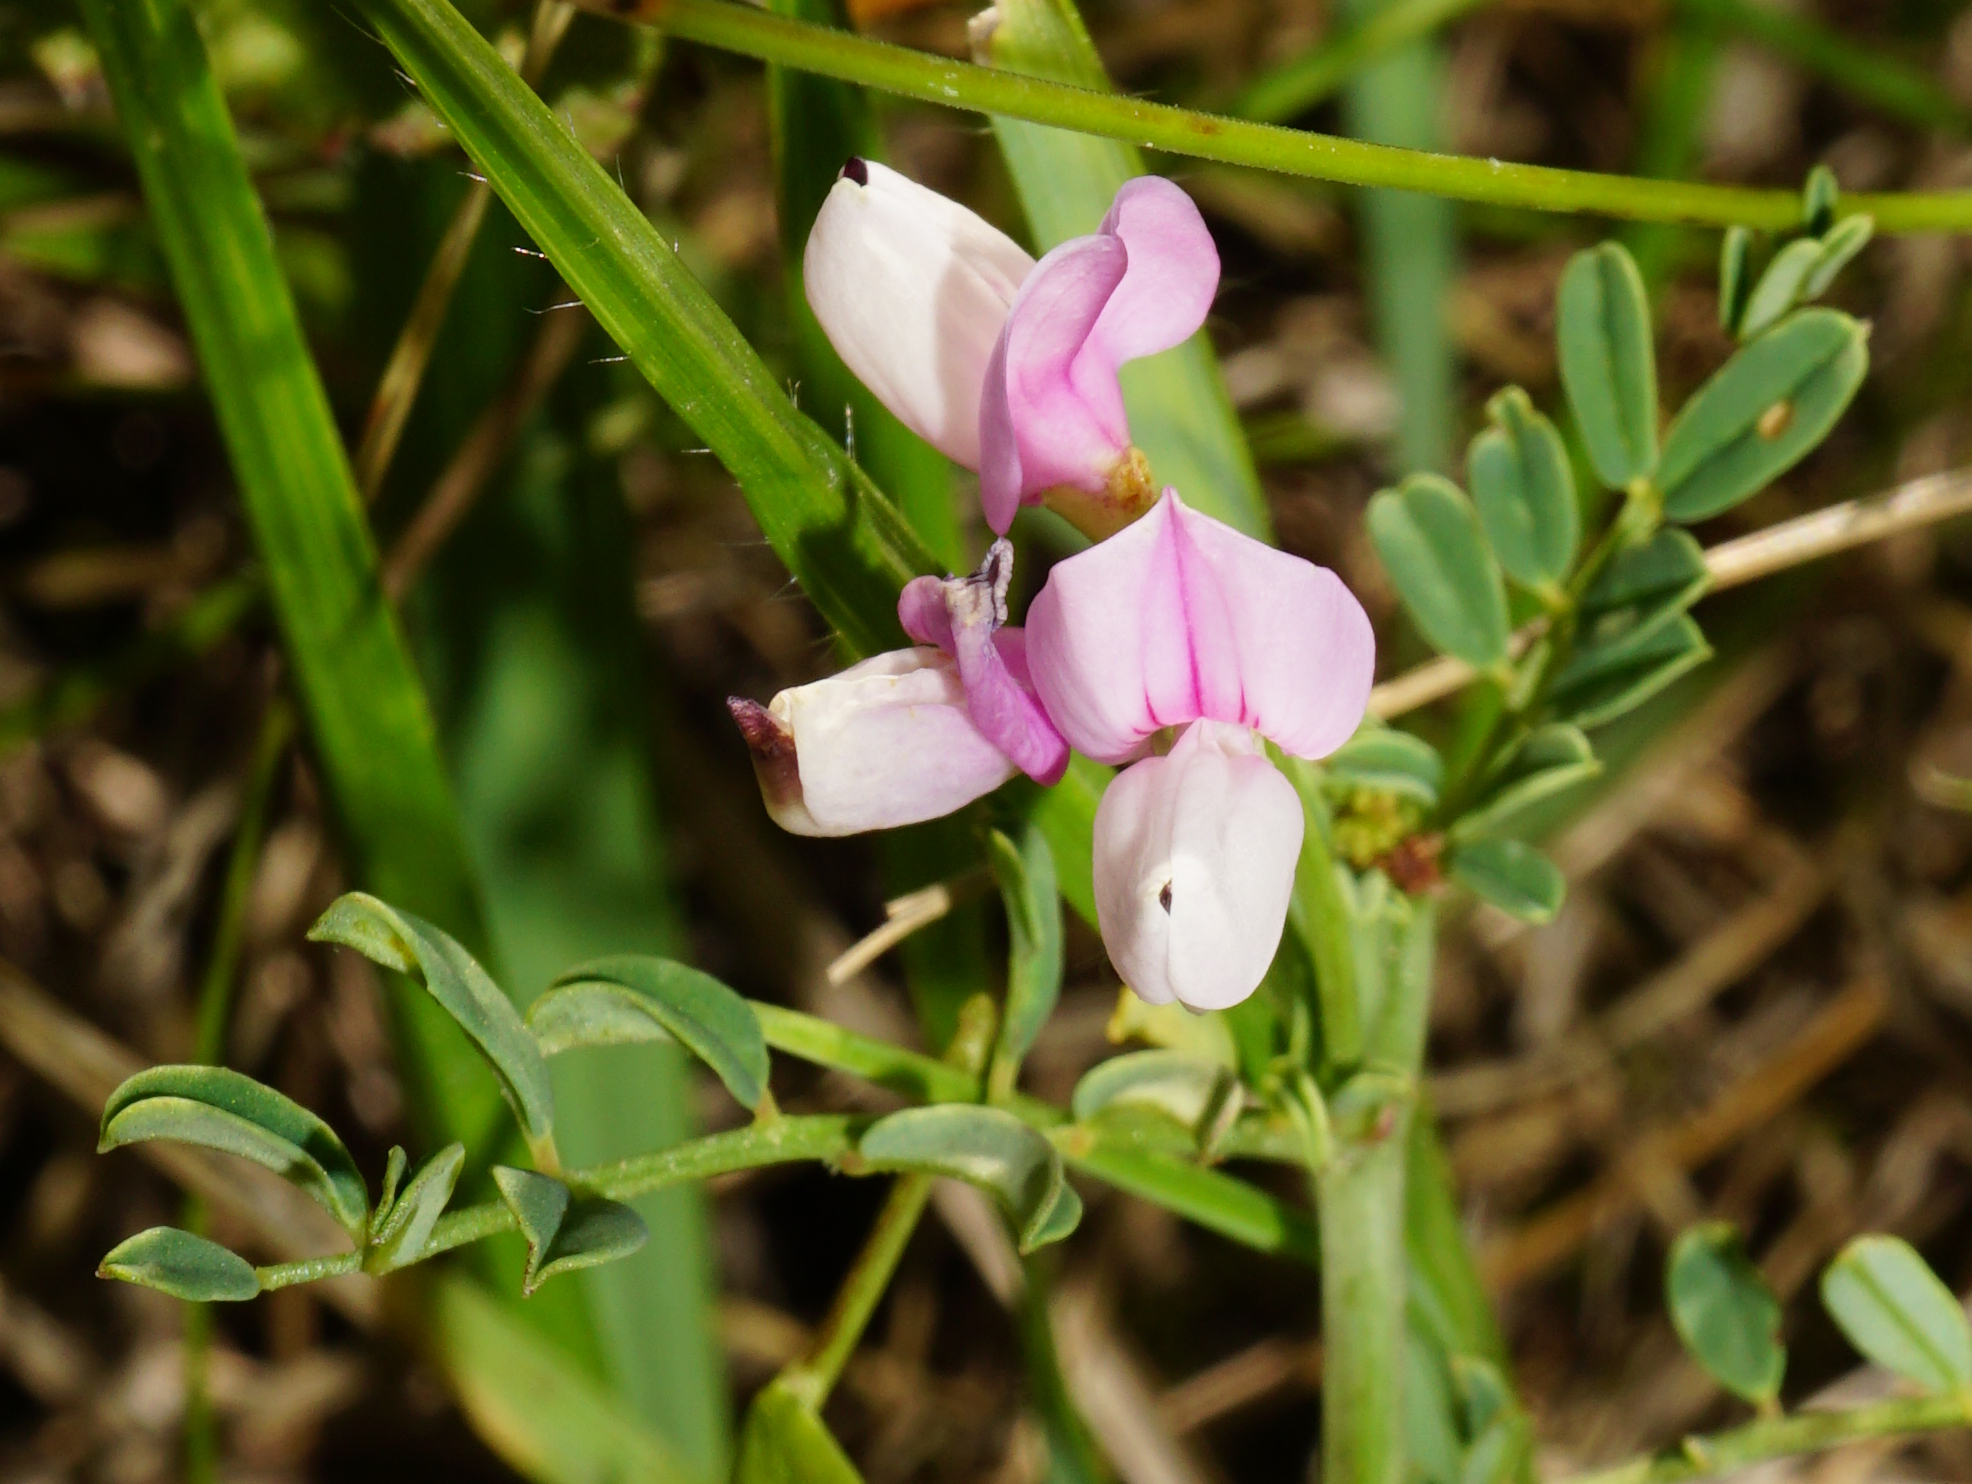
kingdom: Plantae
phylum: Tracheophyta
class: Magnoliopsida
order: Fabales
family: Fabaceae
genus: Coronilla
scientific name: Coronilla varia
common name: Crownvetch
